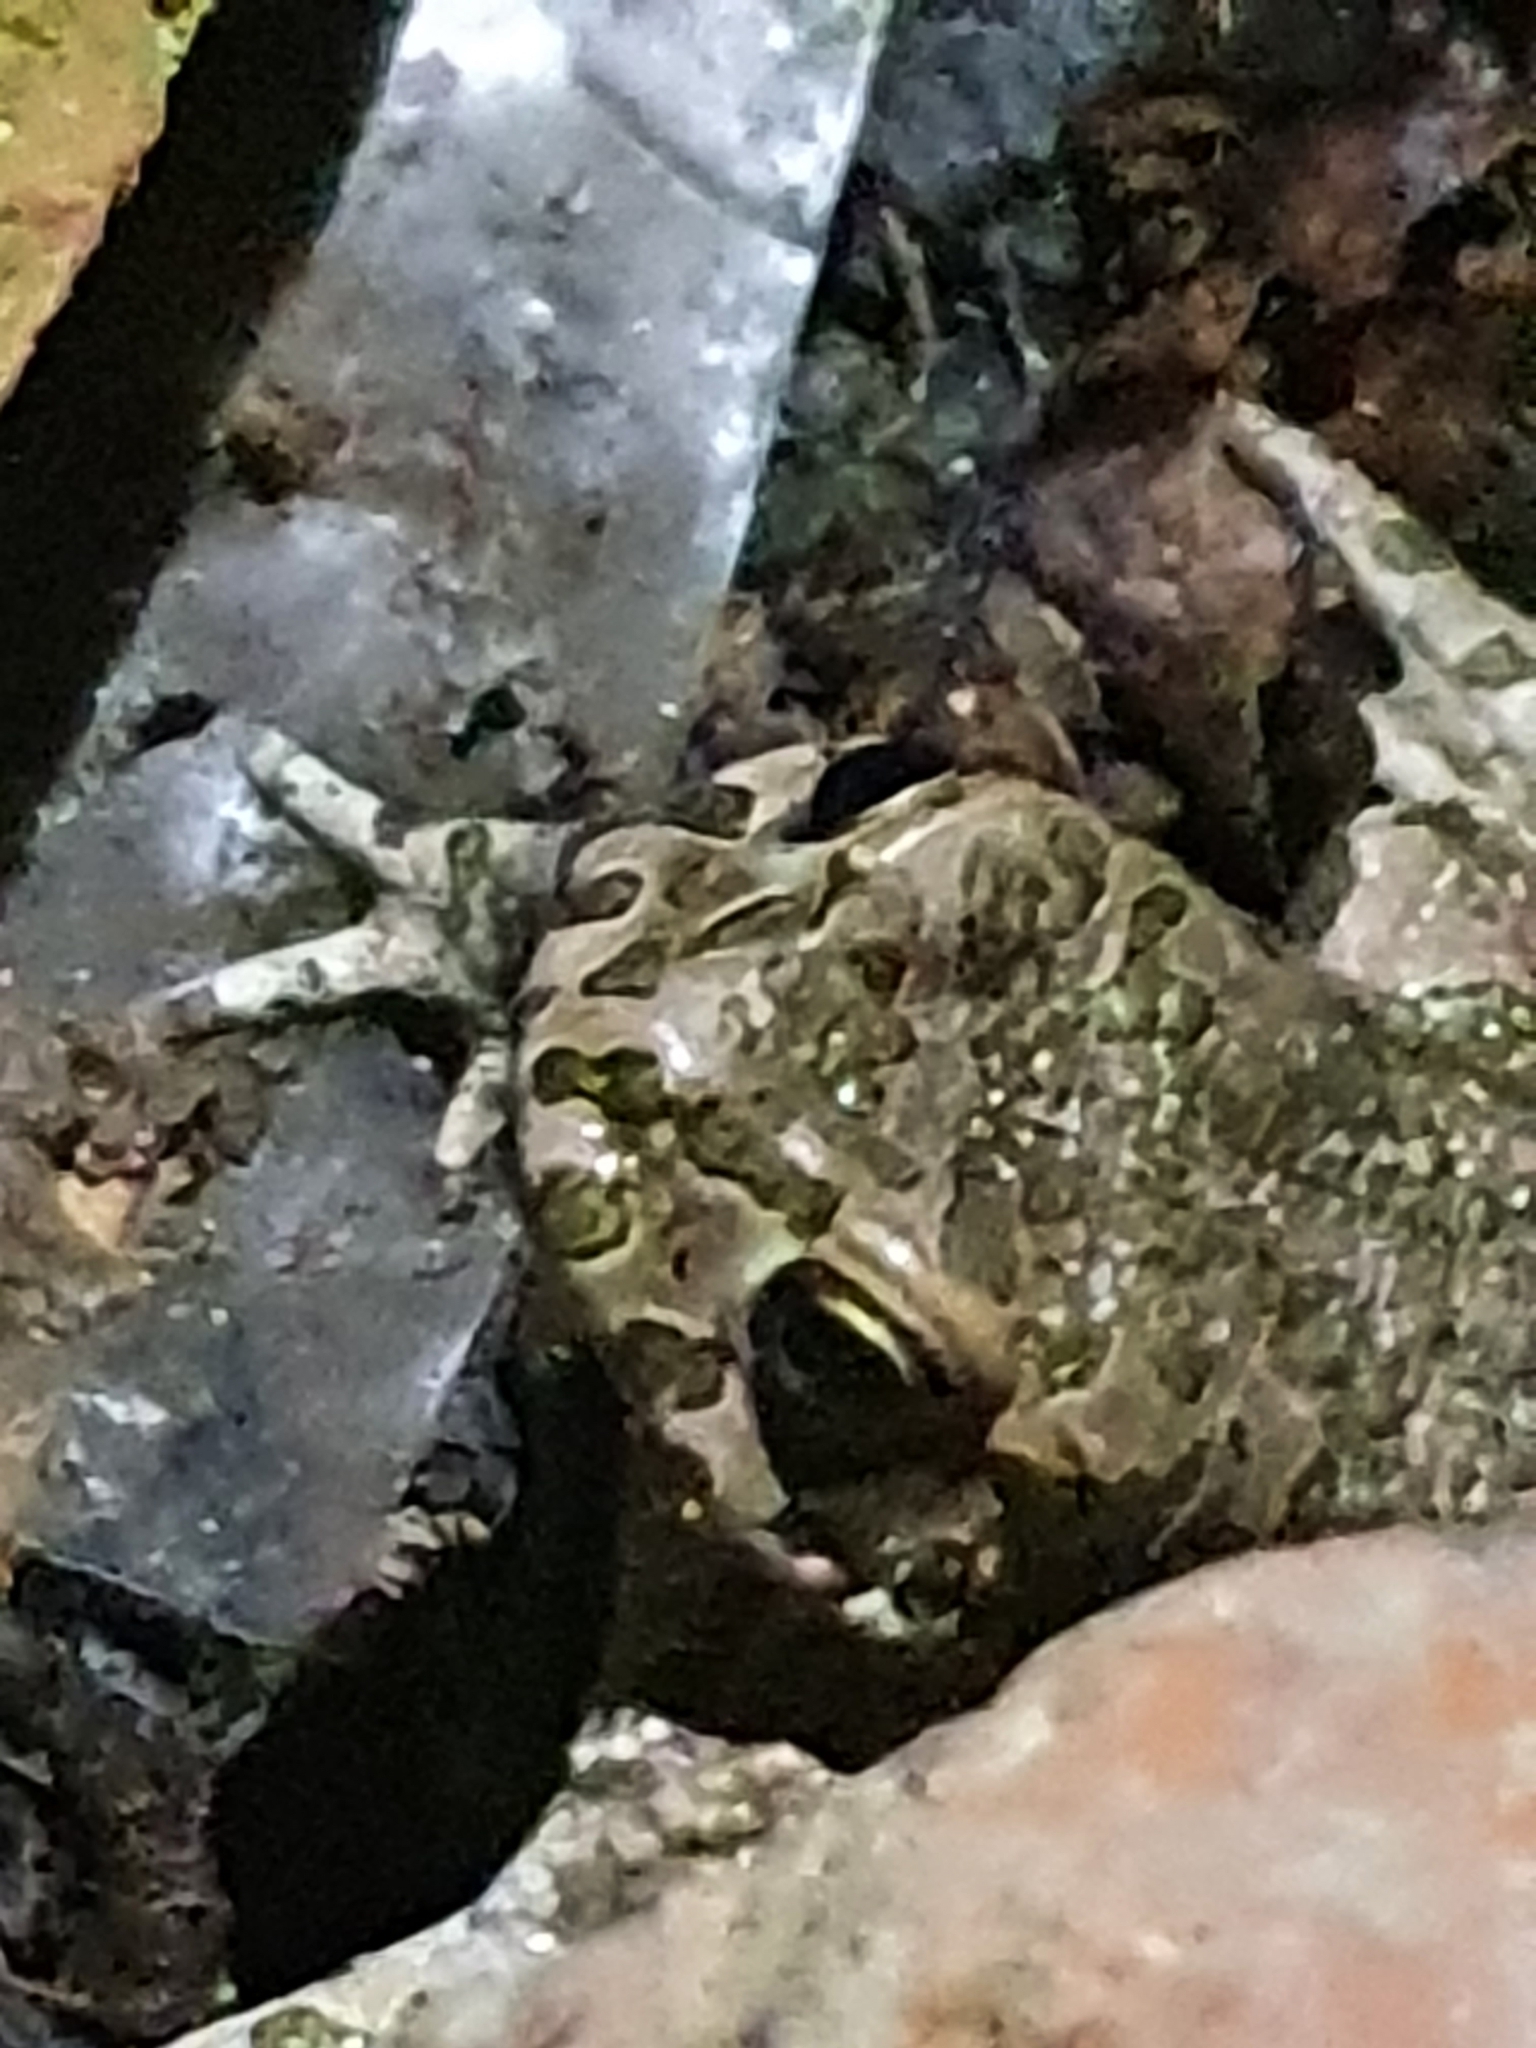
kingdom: Animalia
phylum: Chordata
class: Amphibia
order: Anura
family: Bufonidae
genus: Bufotes
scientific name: Bufotes viridis
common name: European green toad
